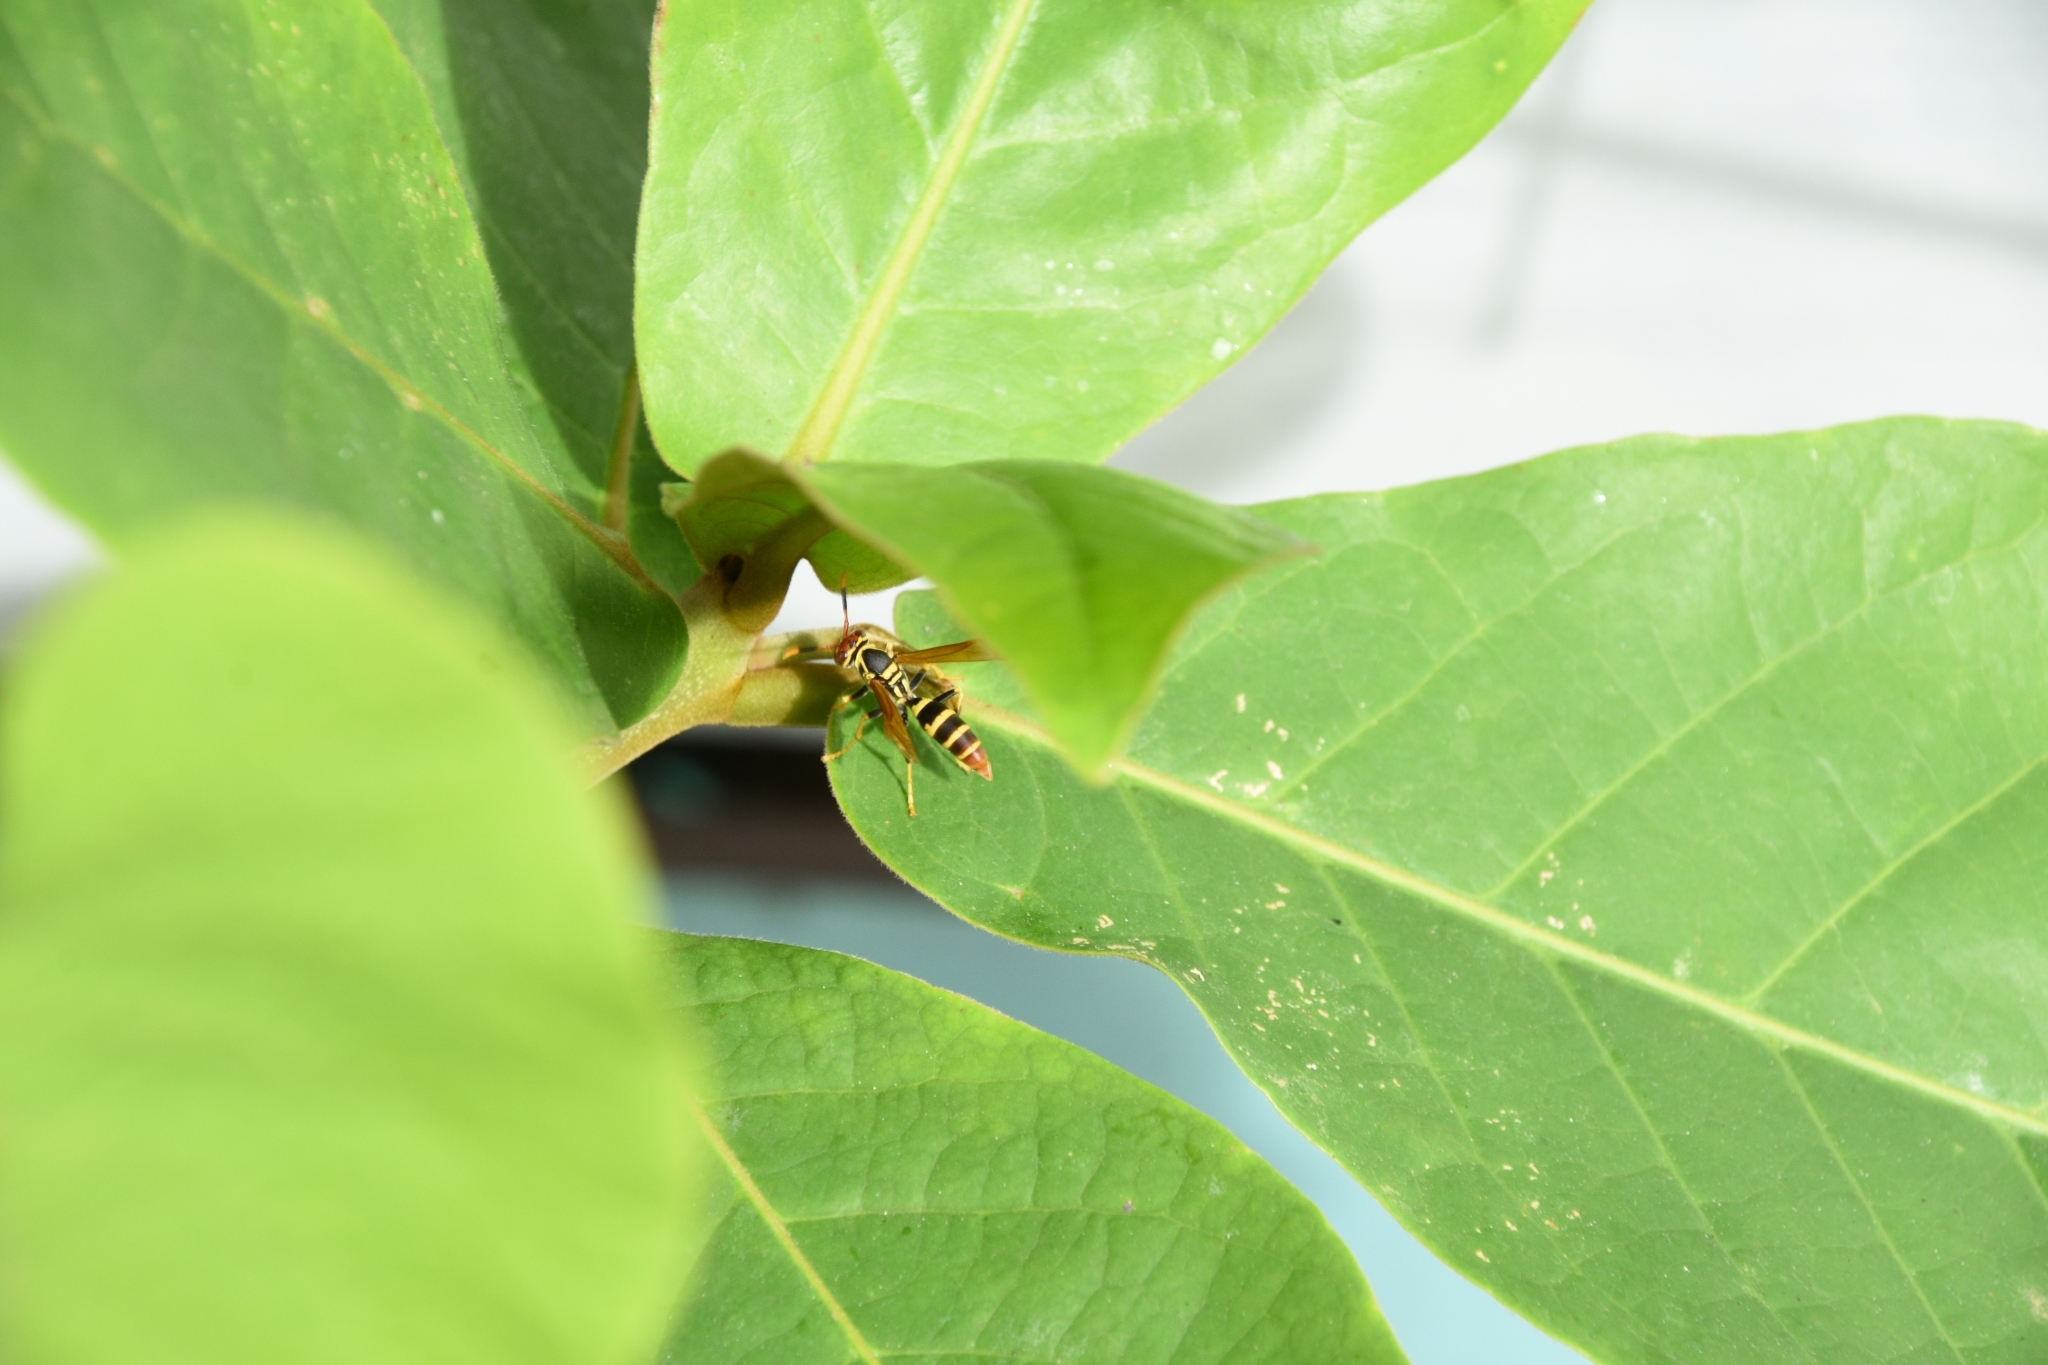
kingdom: Animalia
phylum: Arthropoda
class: Insecta
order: Hymenoptera
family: Eumenidae
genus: Polistes
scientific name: Polistes crinitus
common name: Jack spaniard
